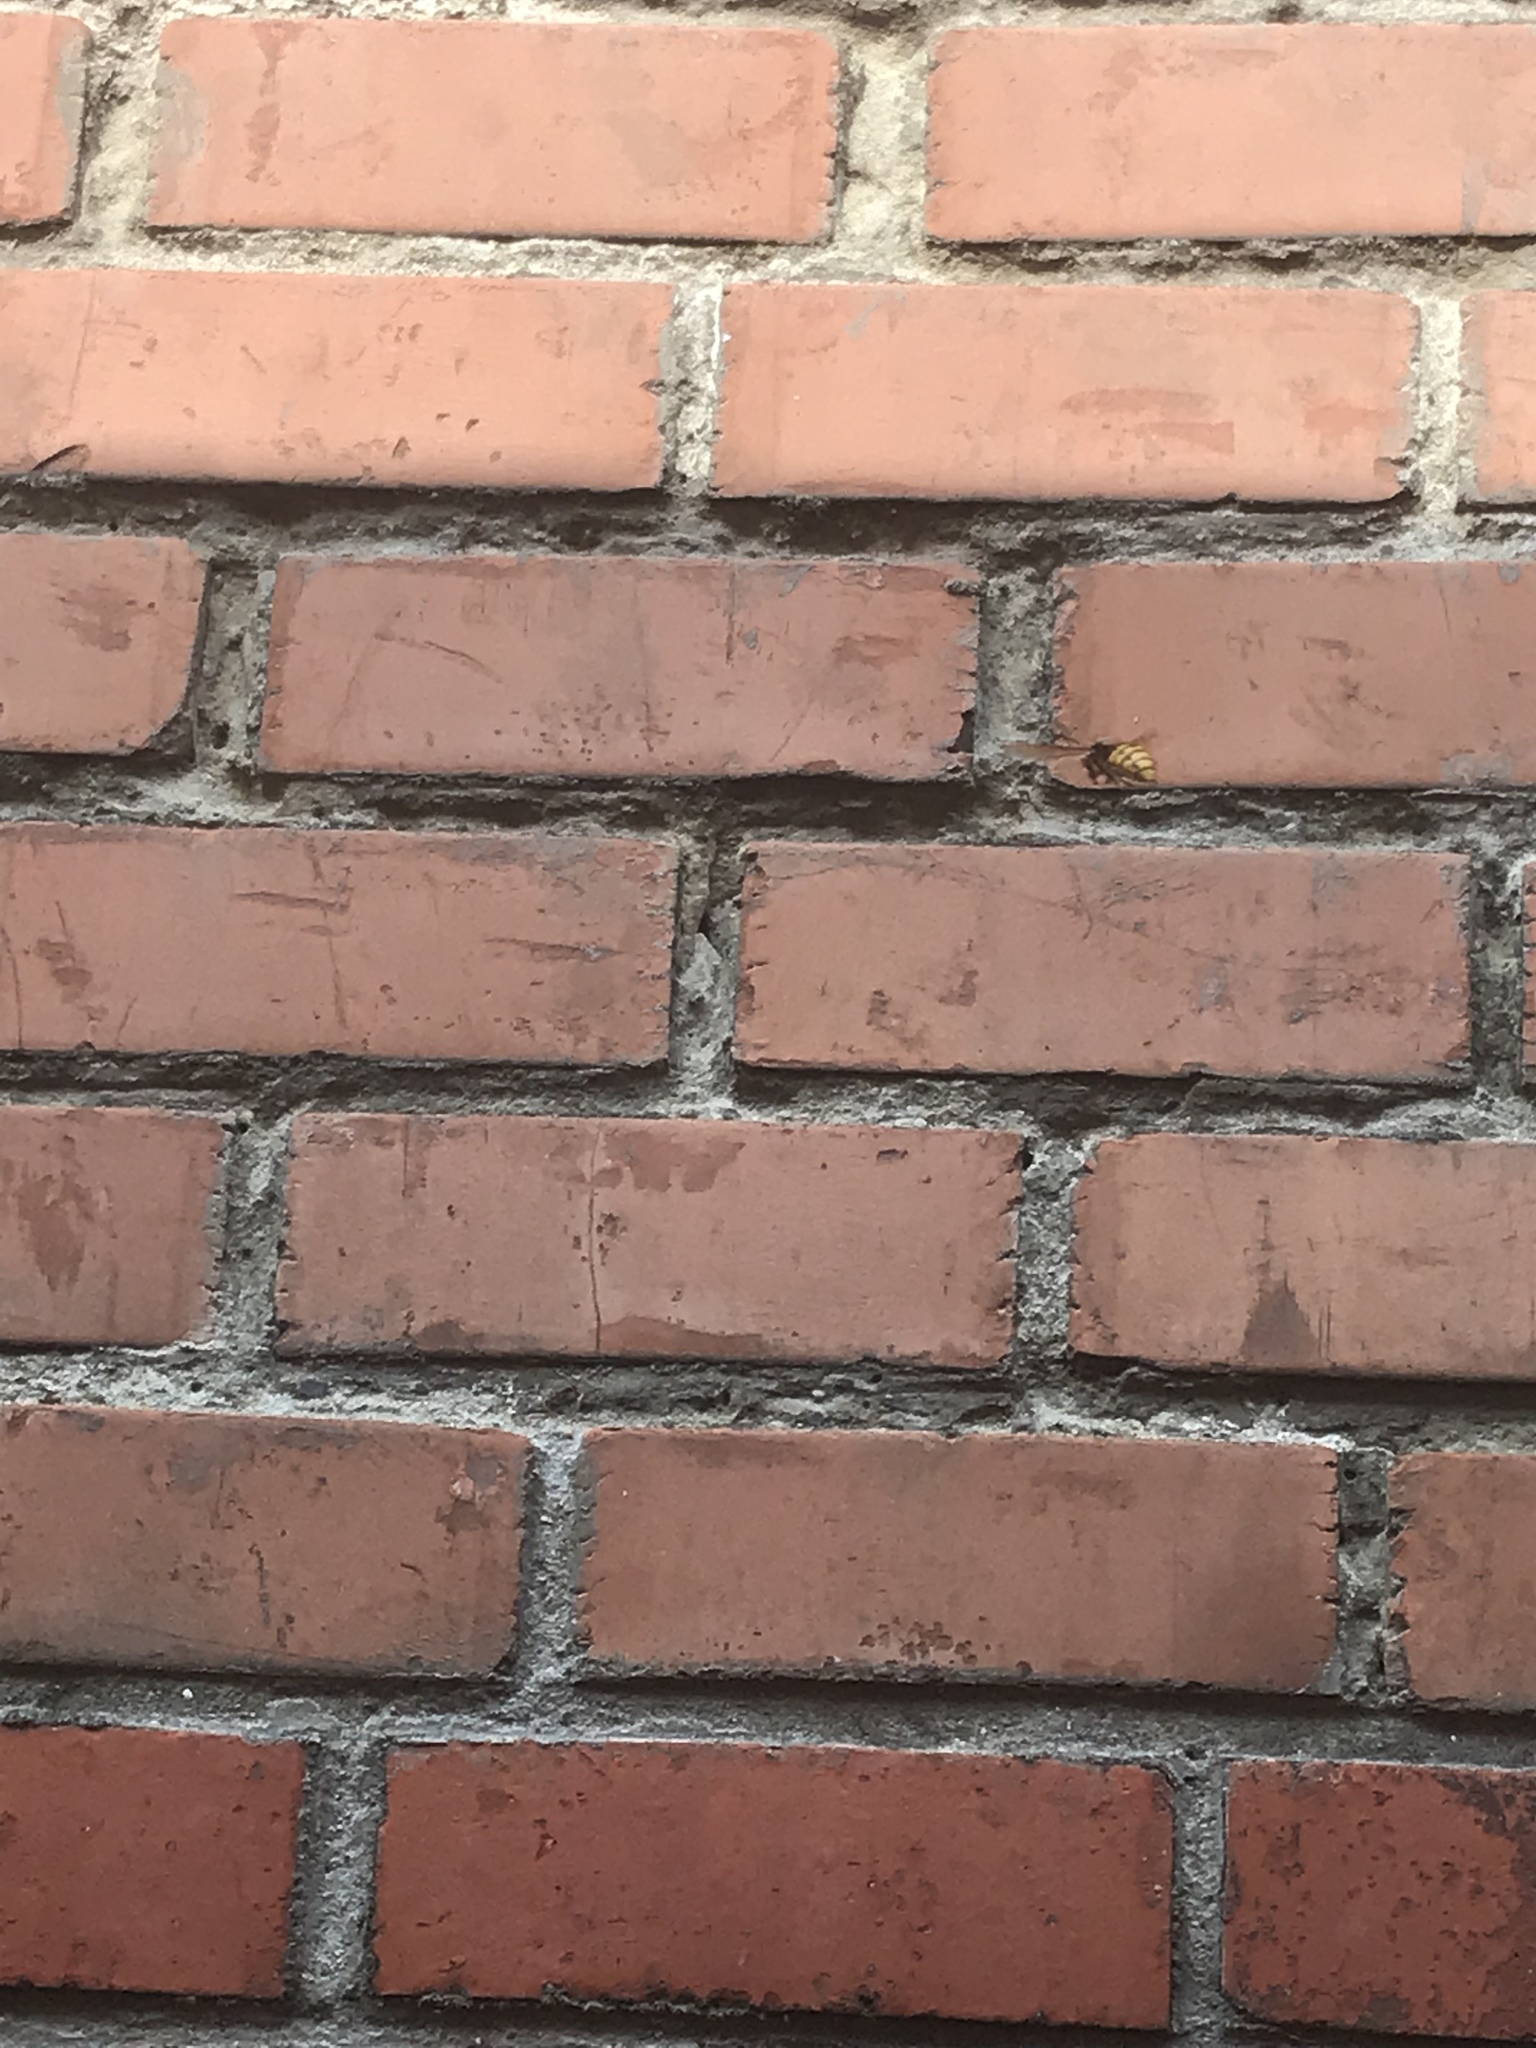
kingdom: Animalia
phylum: Arthropoda
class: Insecta
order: Hymenoptera
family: Vespidae
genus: Vespa
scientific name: Vespa crabro
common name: Hornet
